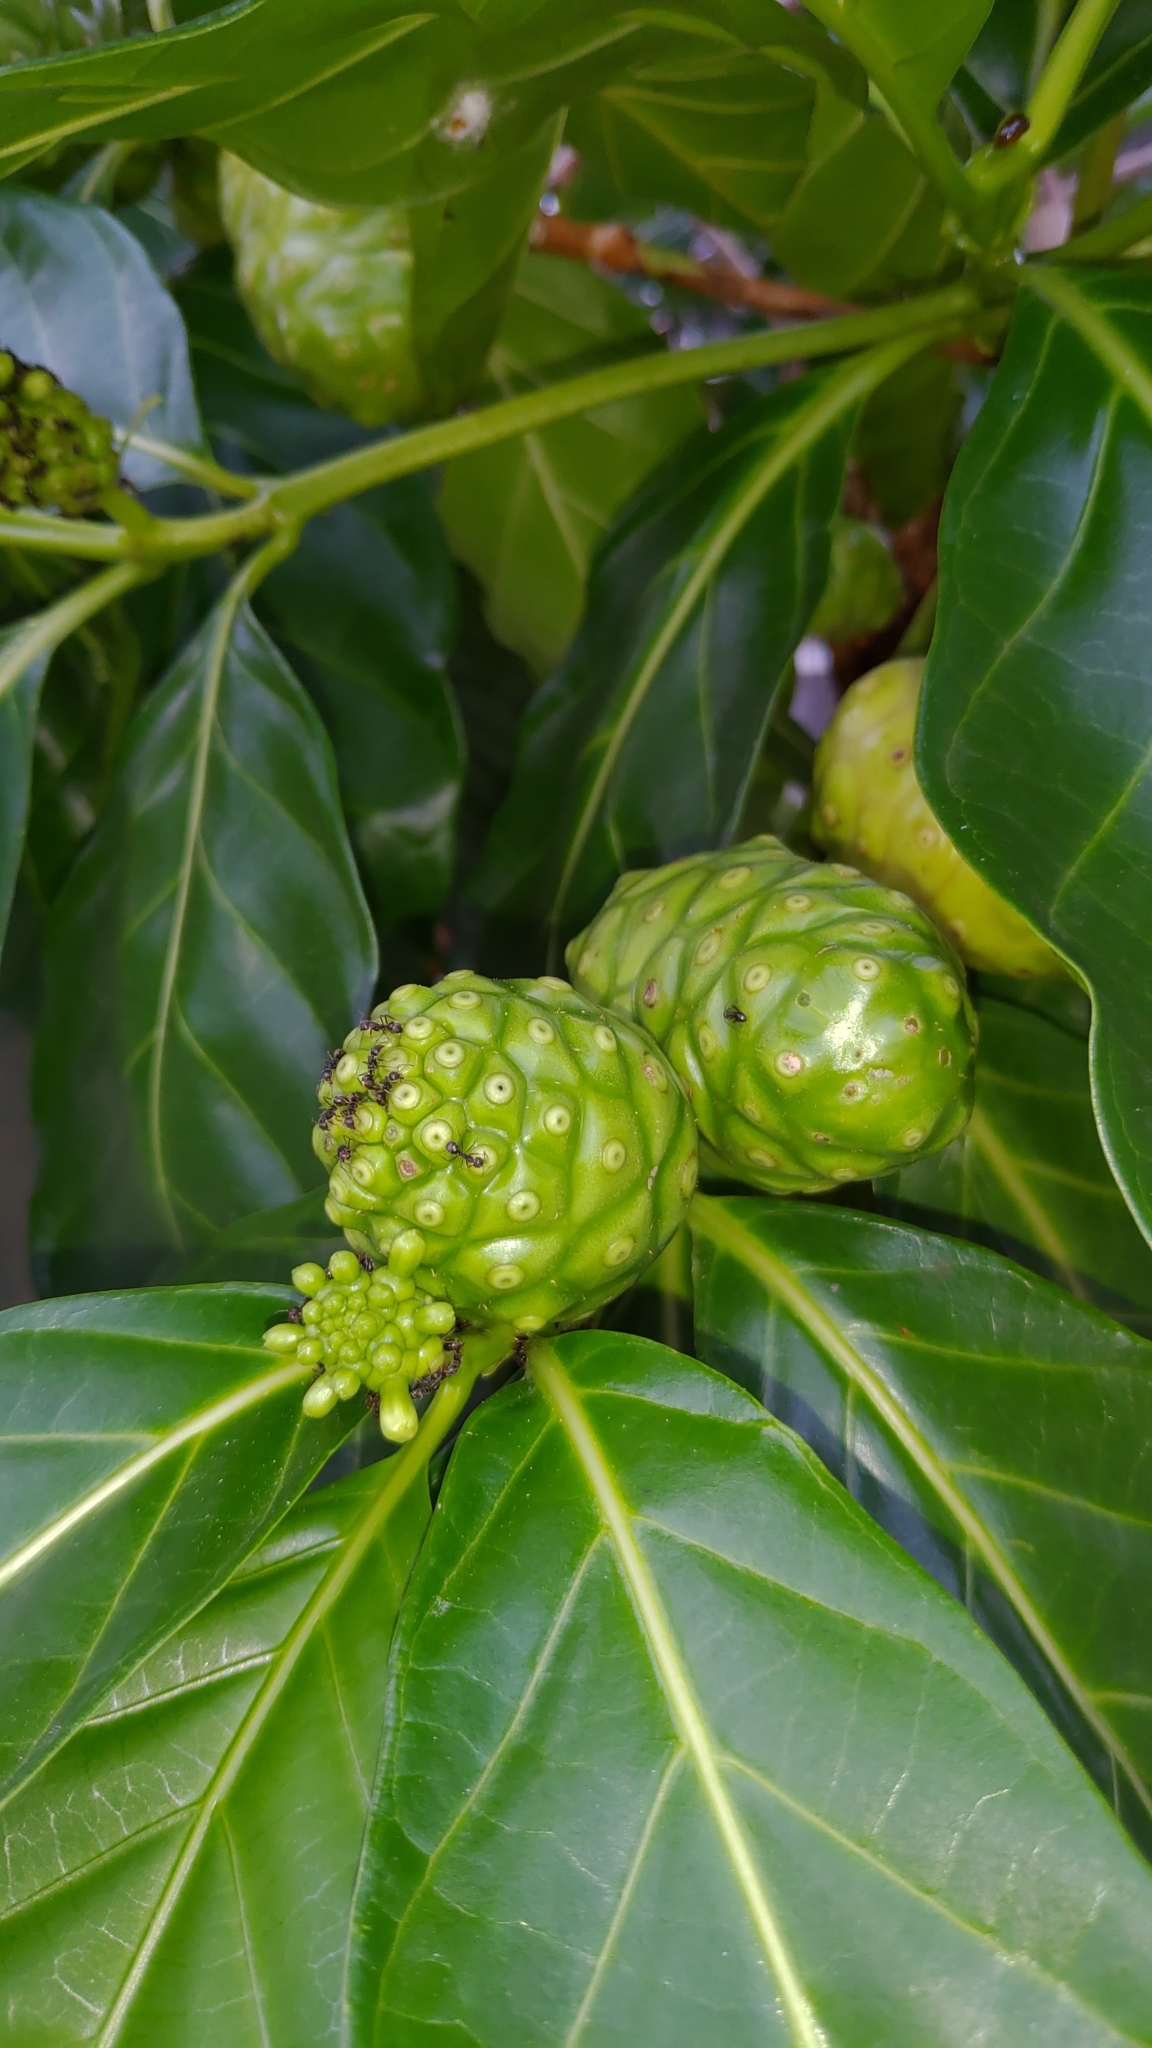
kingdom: Plantae
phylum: Tracheophyta
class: Magnoliopsida
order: Gentianales
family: Rubiaceae
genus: Morinda
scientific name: Morinda citrifolia
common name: Indian-mulberry
